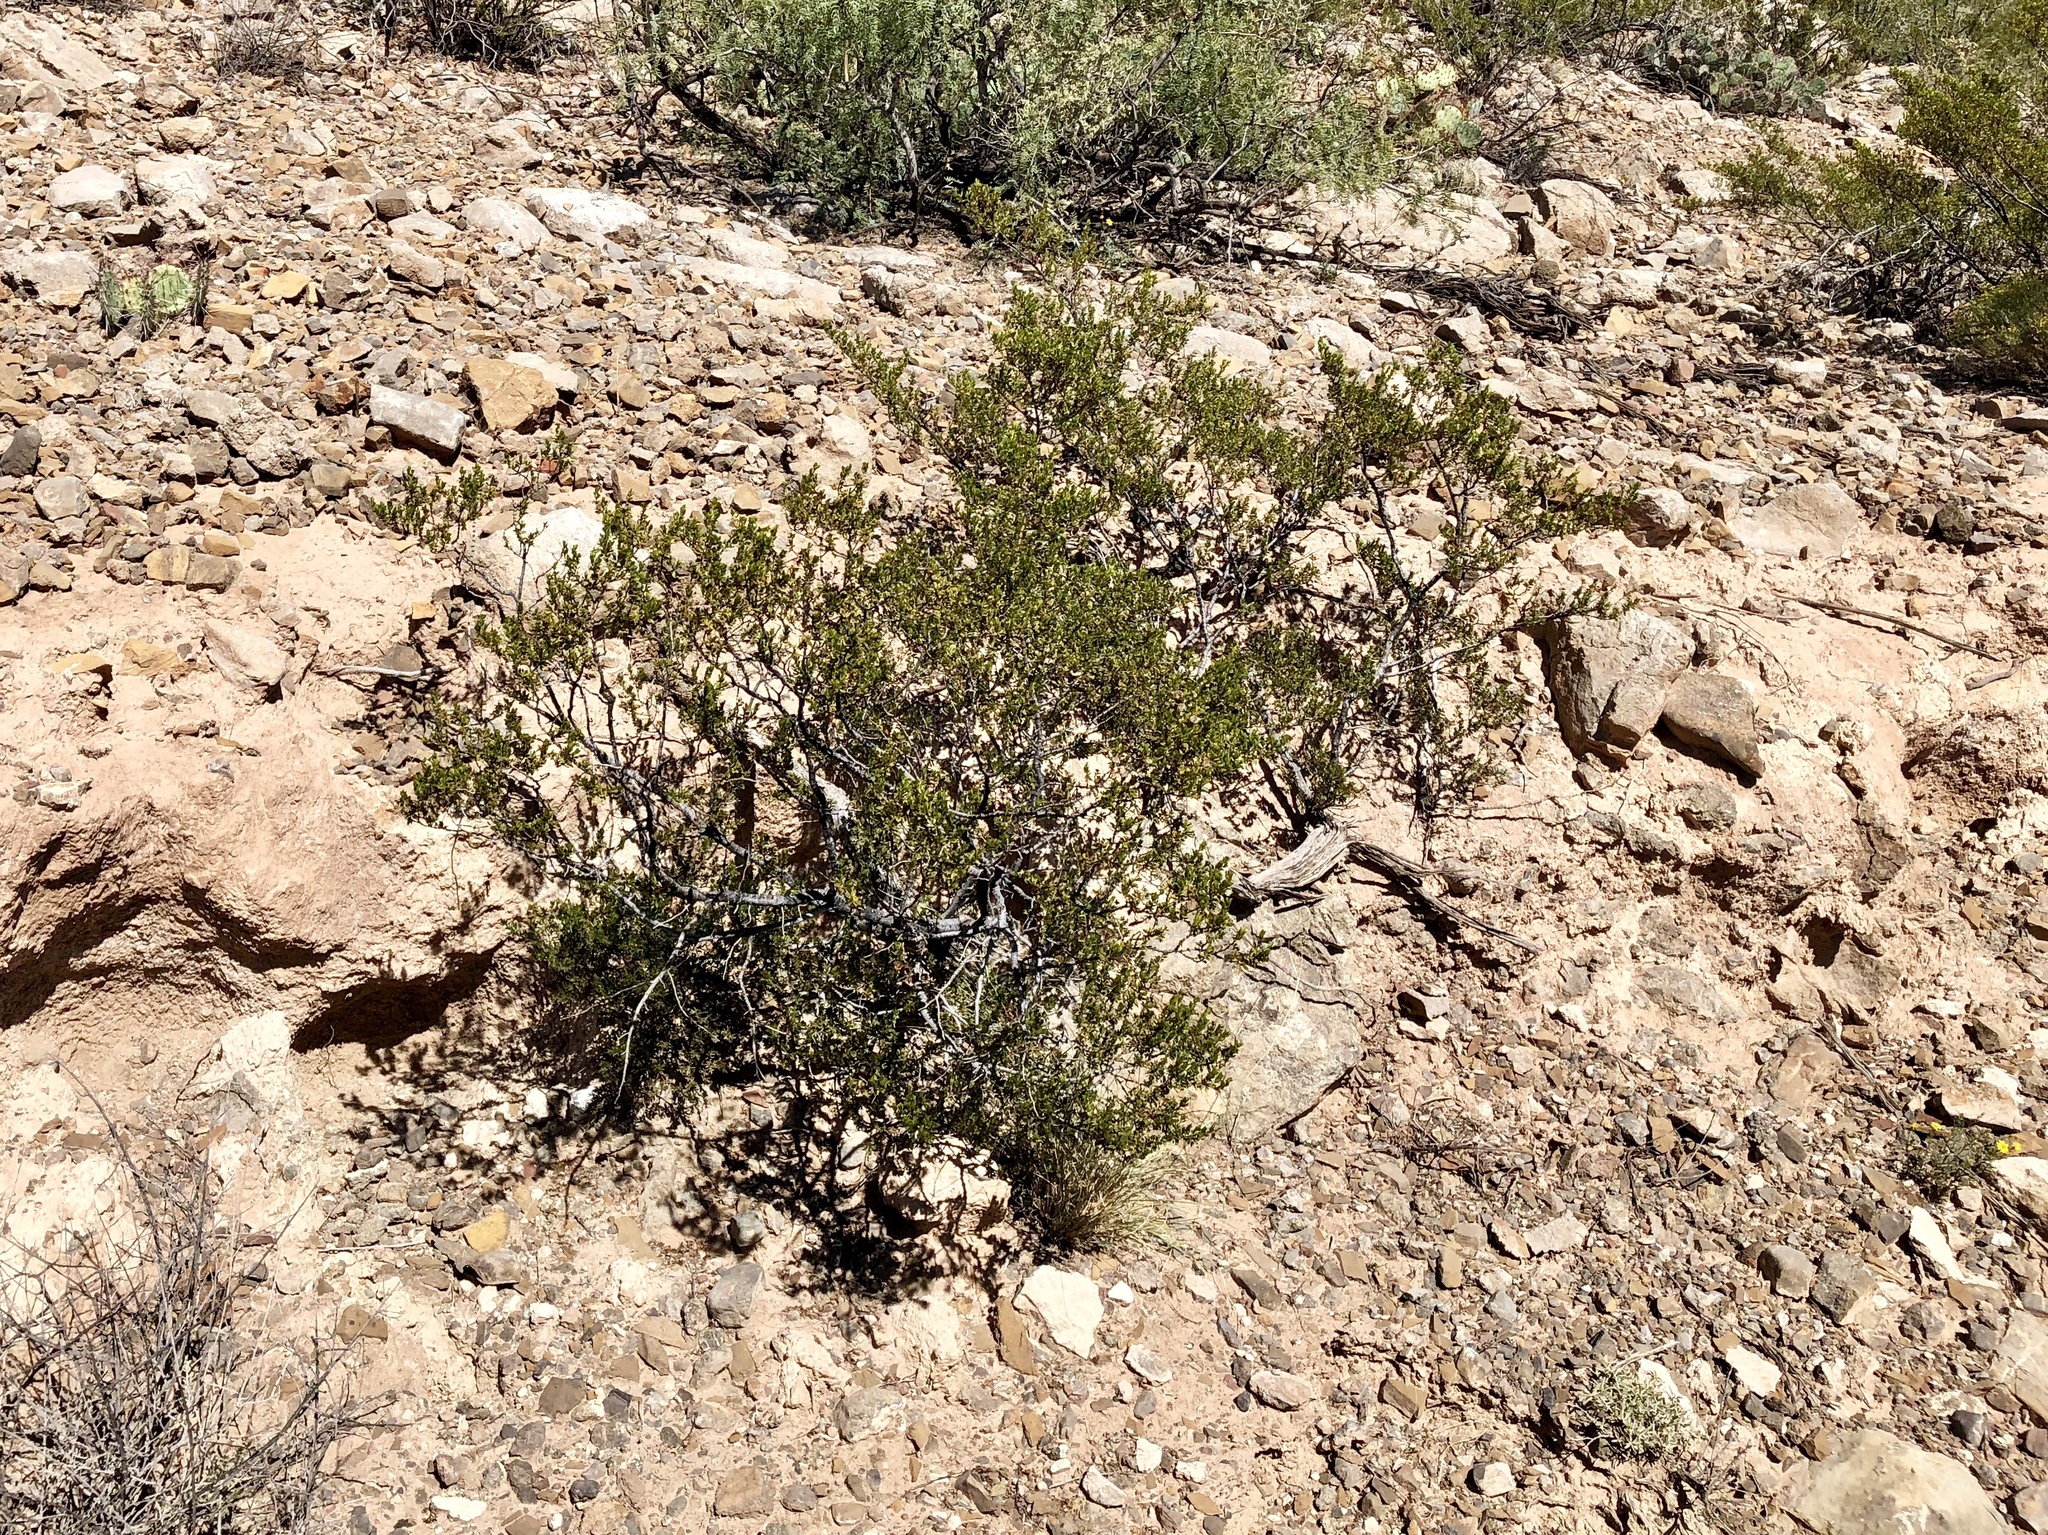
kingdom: Plantae
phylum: Tracheophyta
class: Magnoliopsida
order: Zygophyllales
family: Zygophyllaceae
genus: Larrea
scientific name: Larrea tridentata
